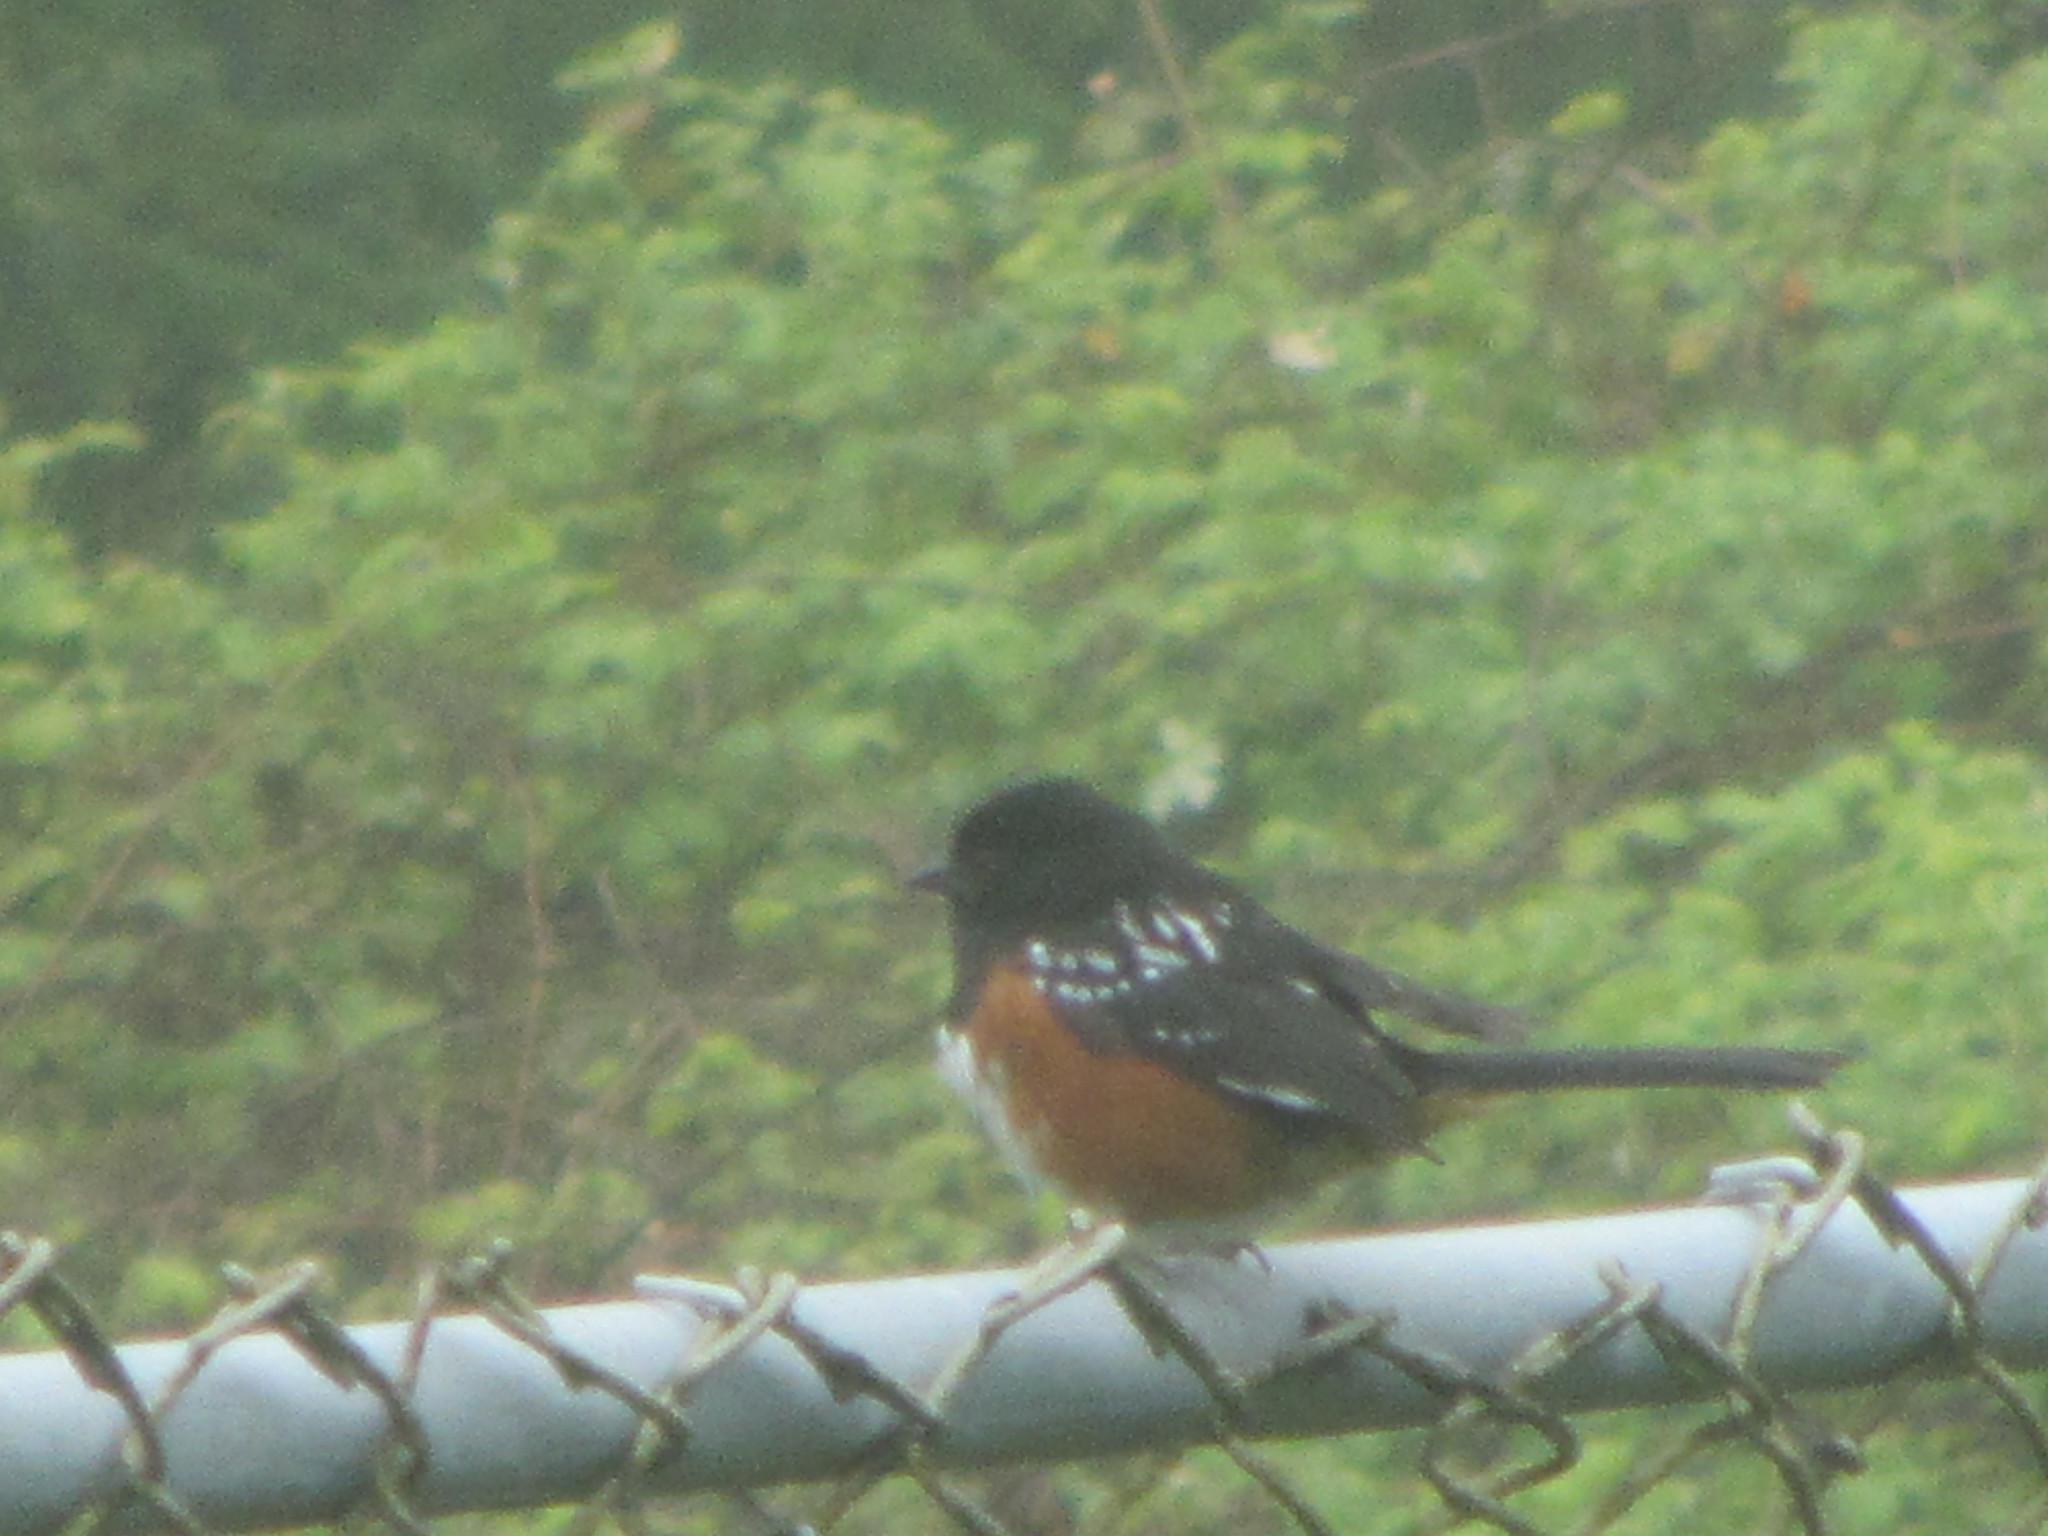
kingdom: Animalia
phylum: Chordata
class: Aves
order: Passeriformes
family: Passerellidae
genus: Pipilo
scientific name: Pipilo maculatus
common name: Spotted towhee
